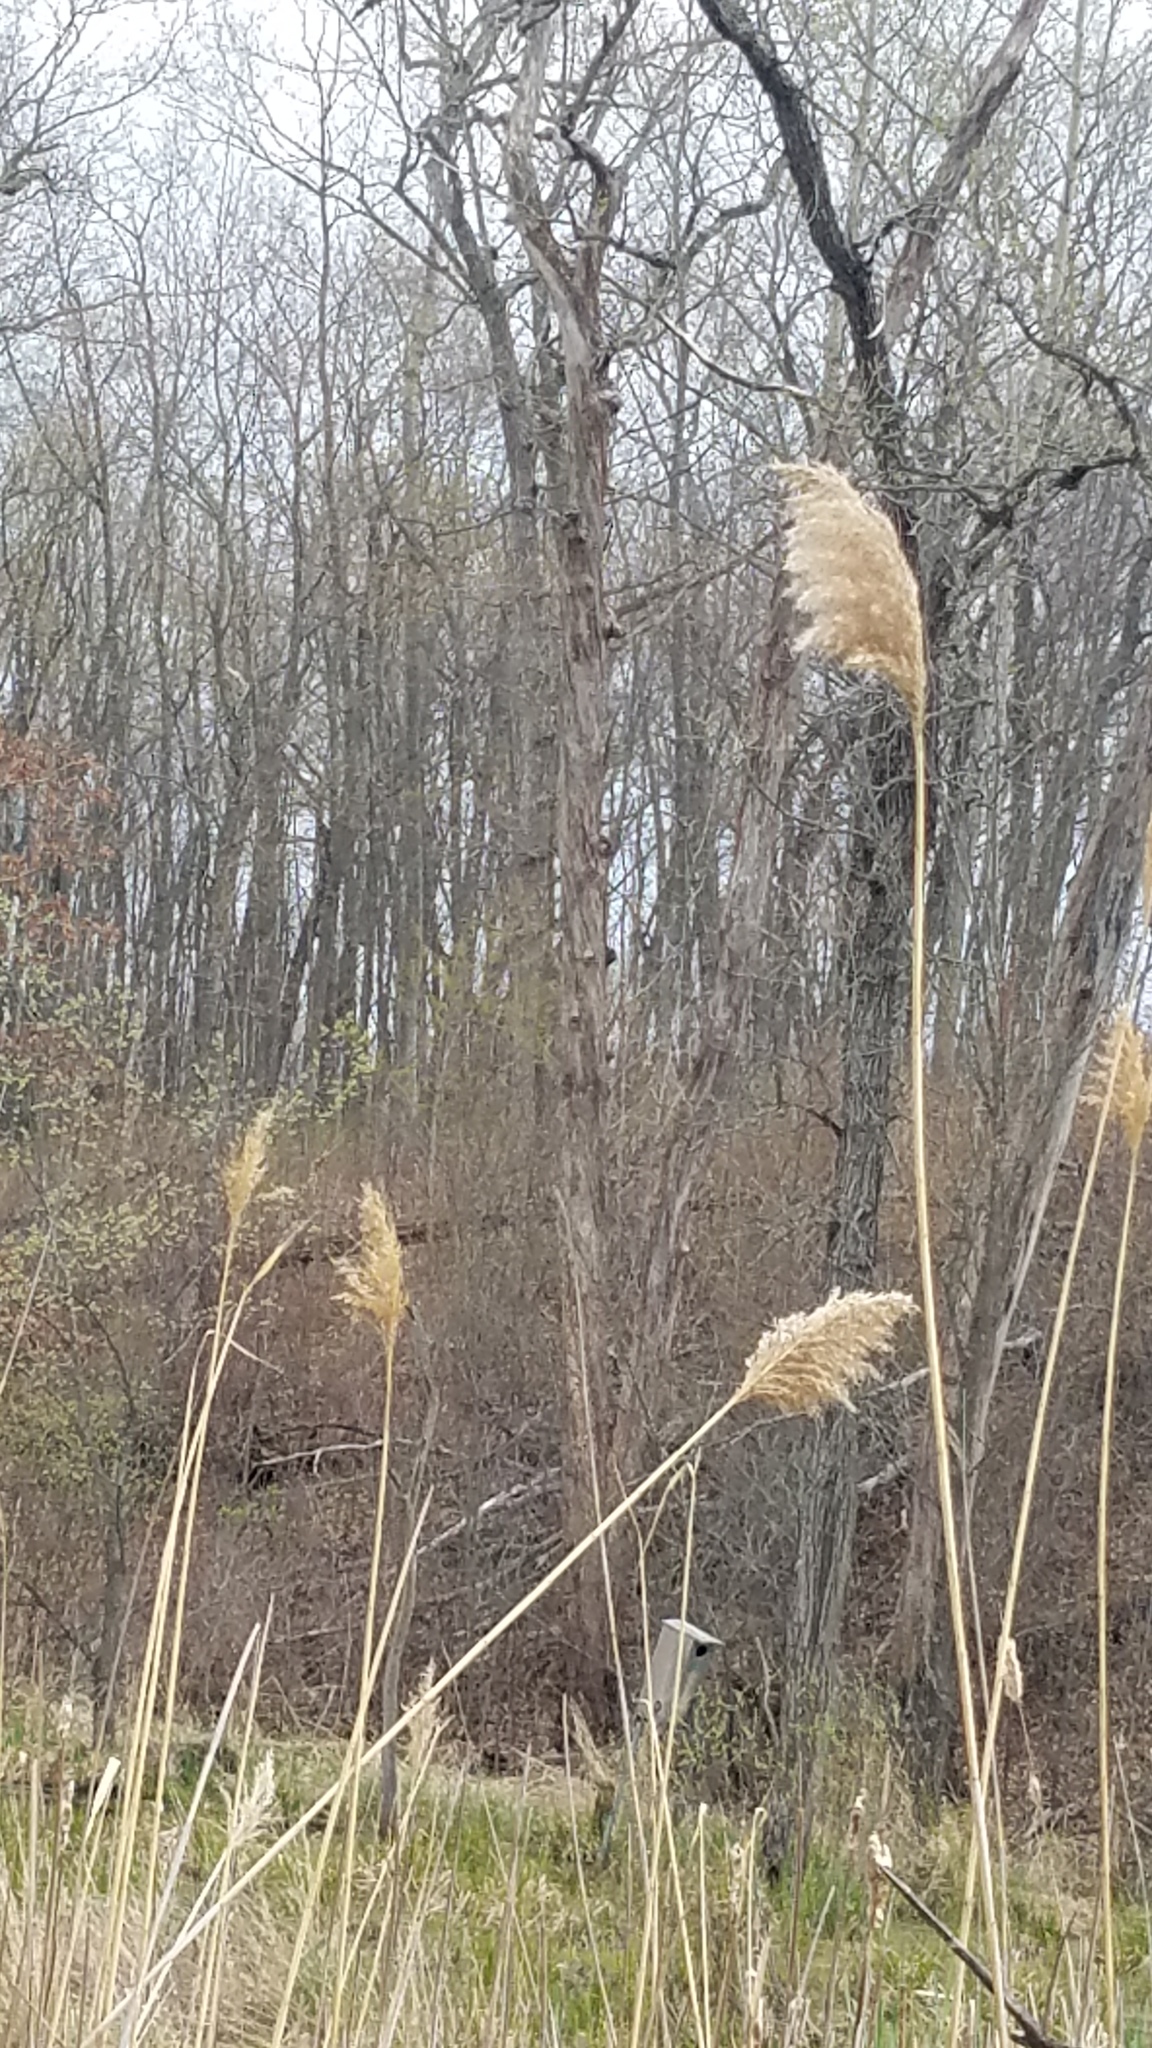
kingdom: Plantae
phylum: Tracheophyta
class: Liliopsida
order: Poales
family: Poaceae
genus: Phragmites
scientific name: Phragmites australis
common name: Common reed
